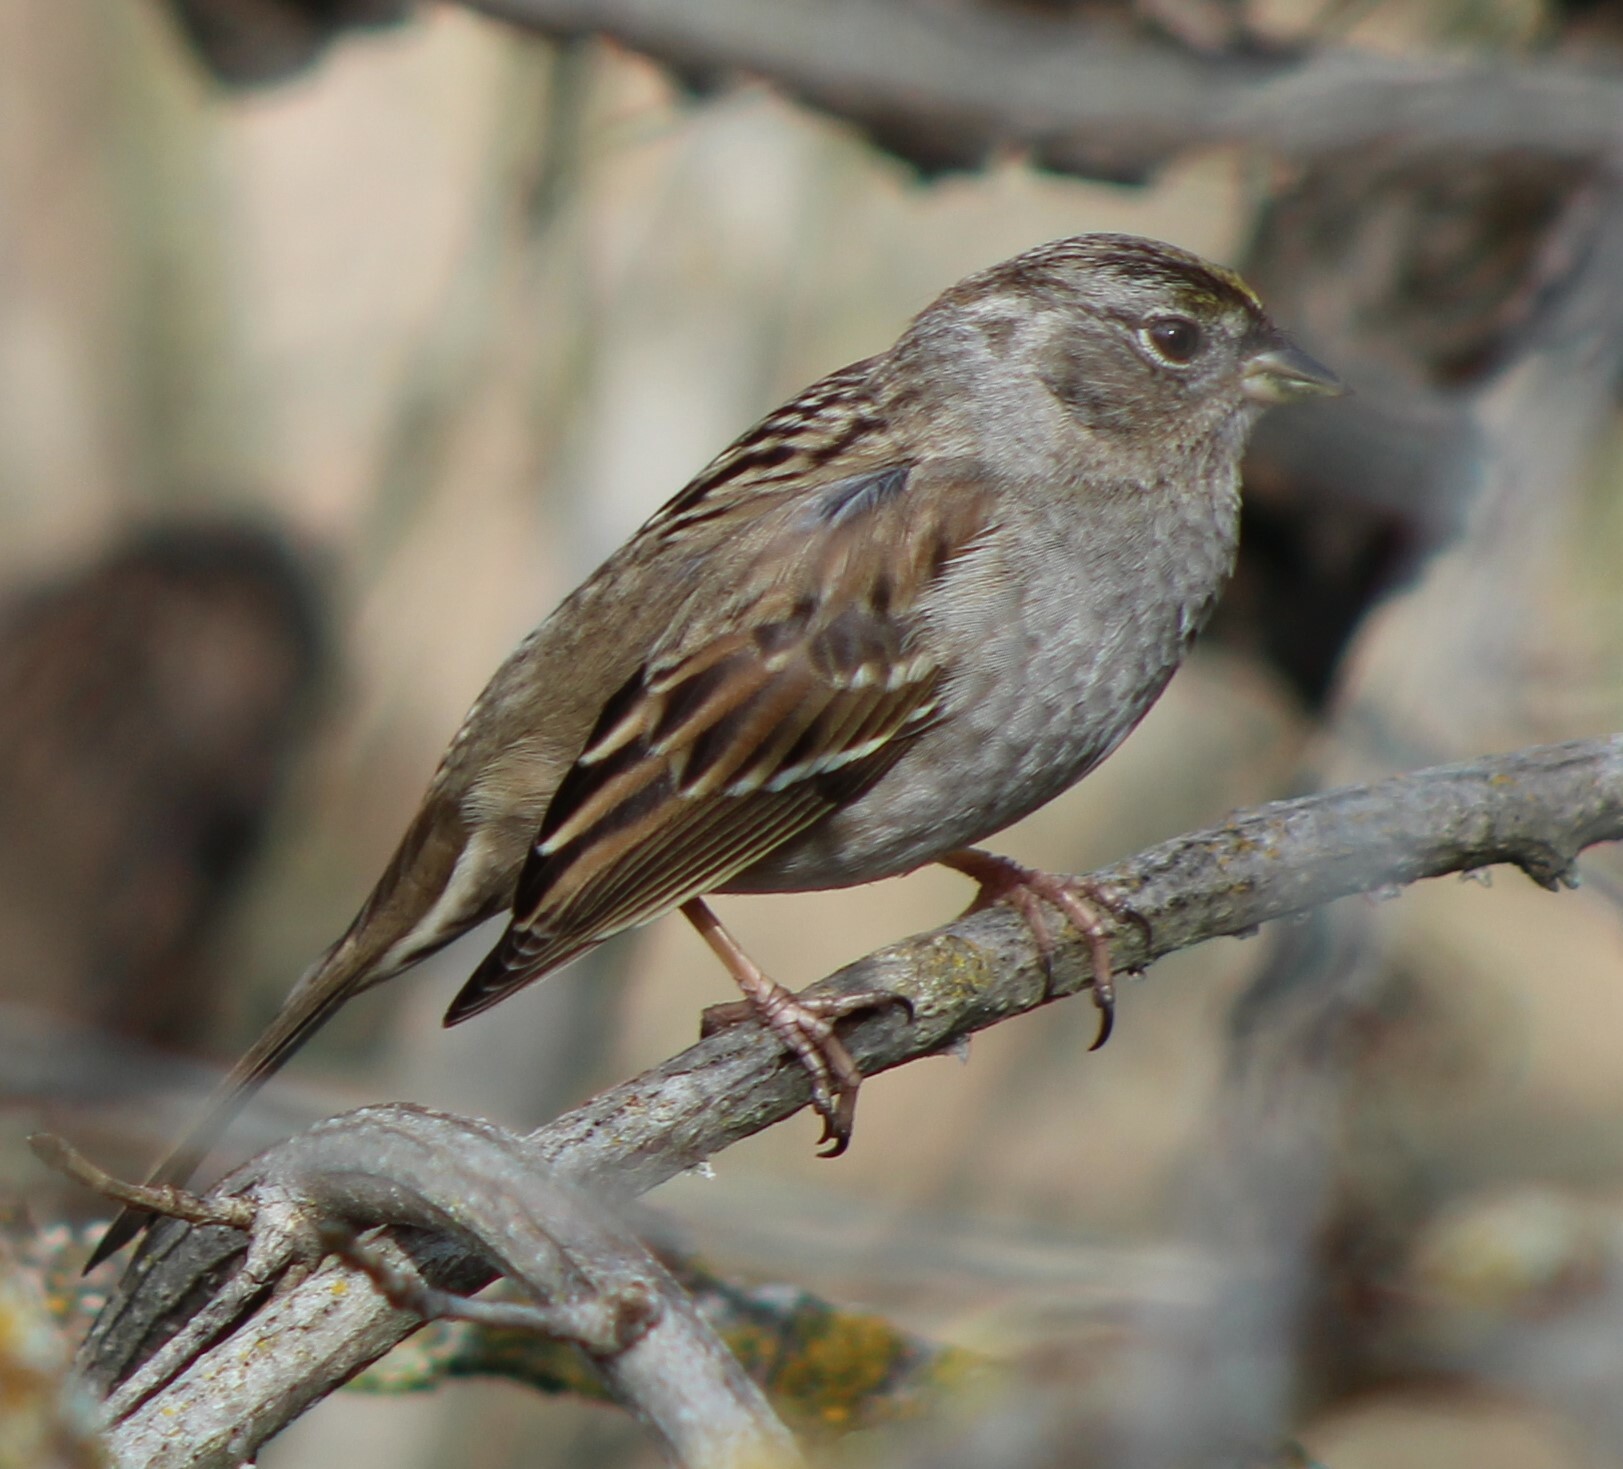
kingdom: Animalia
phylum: Chordata
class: Aves
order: Passeriformes
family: Passerellidae
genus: Zonotrichia
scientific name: Zonotrichia atricapilla
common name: Golden-crowned sparrow
